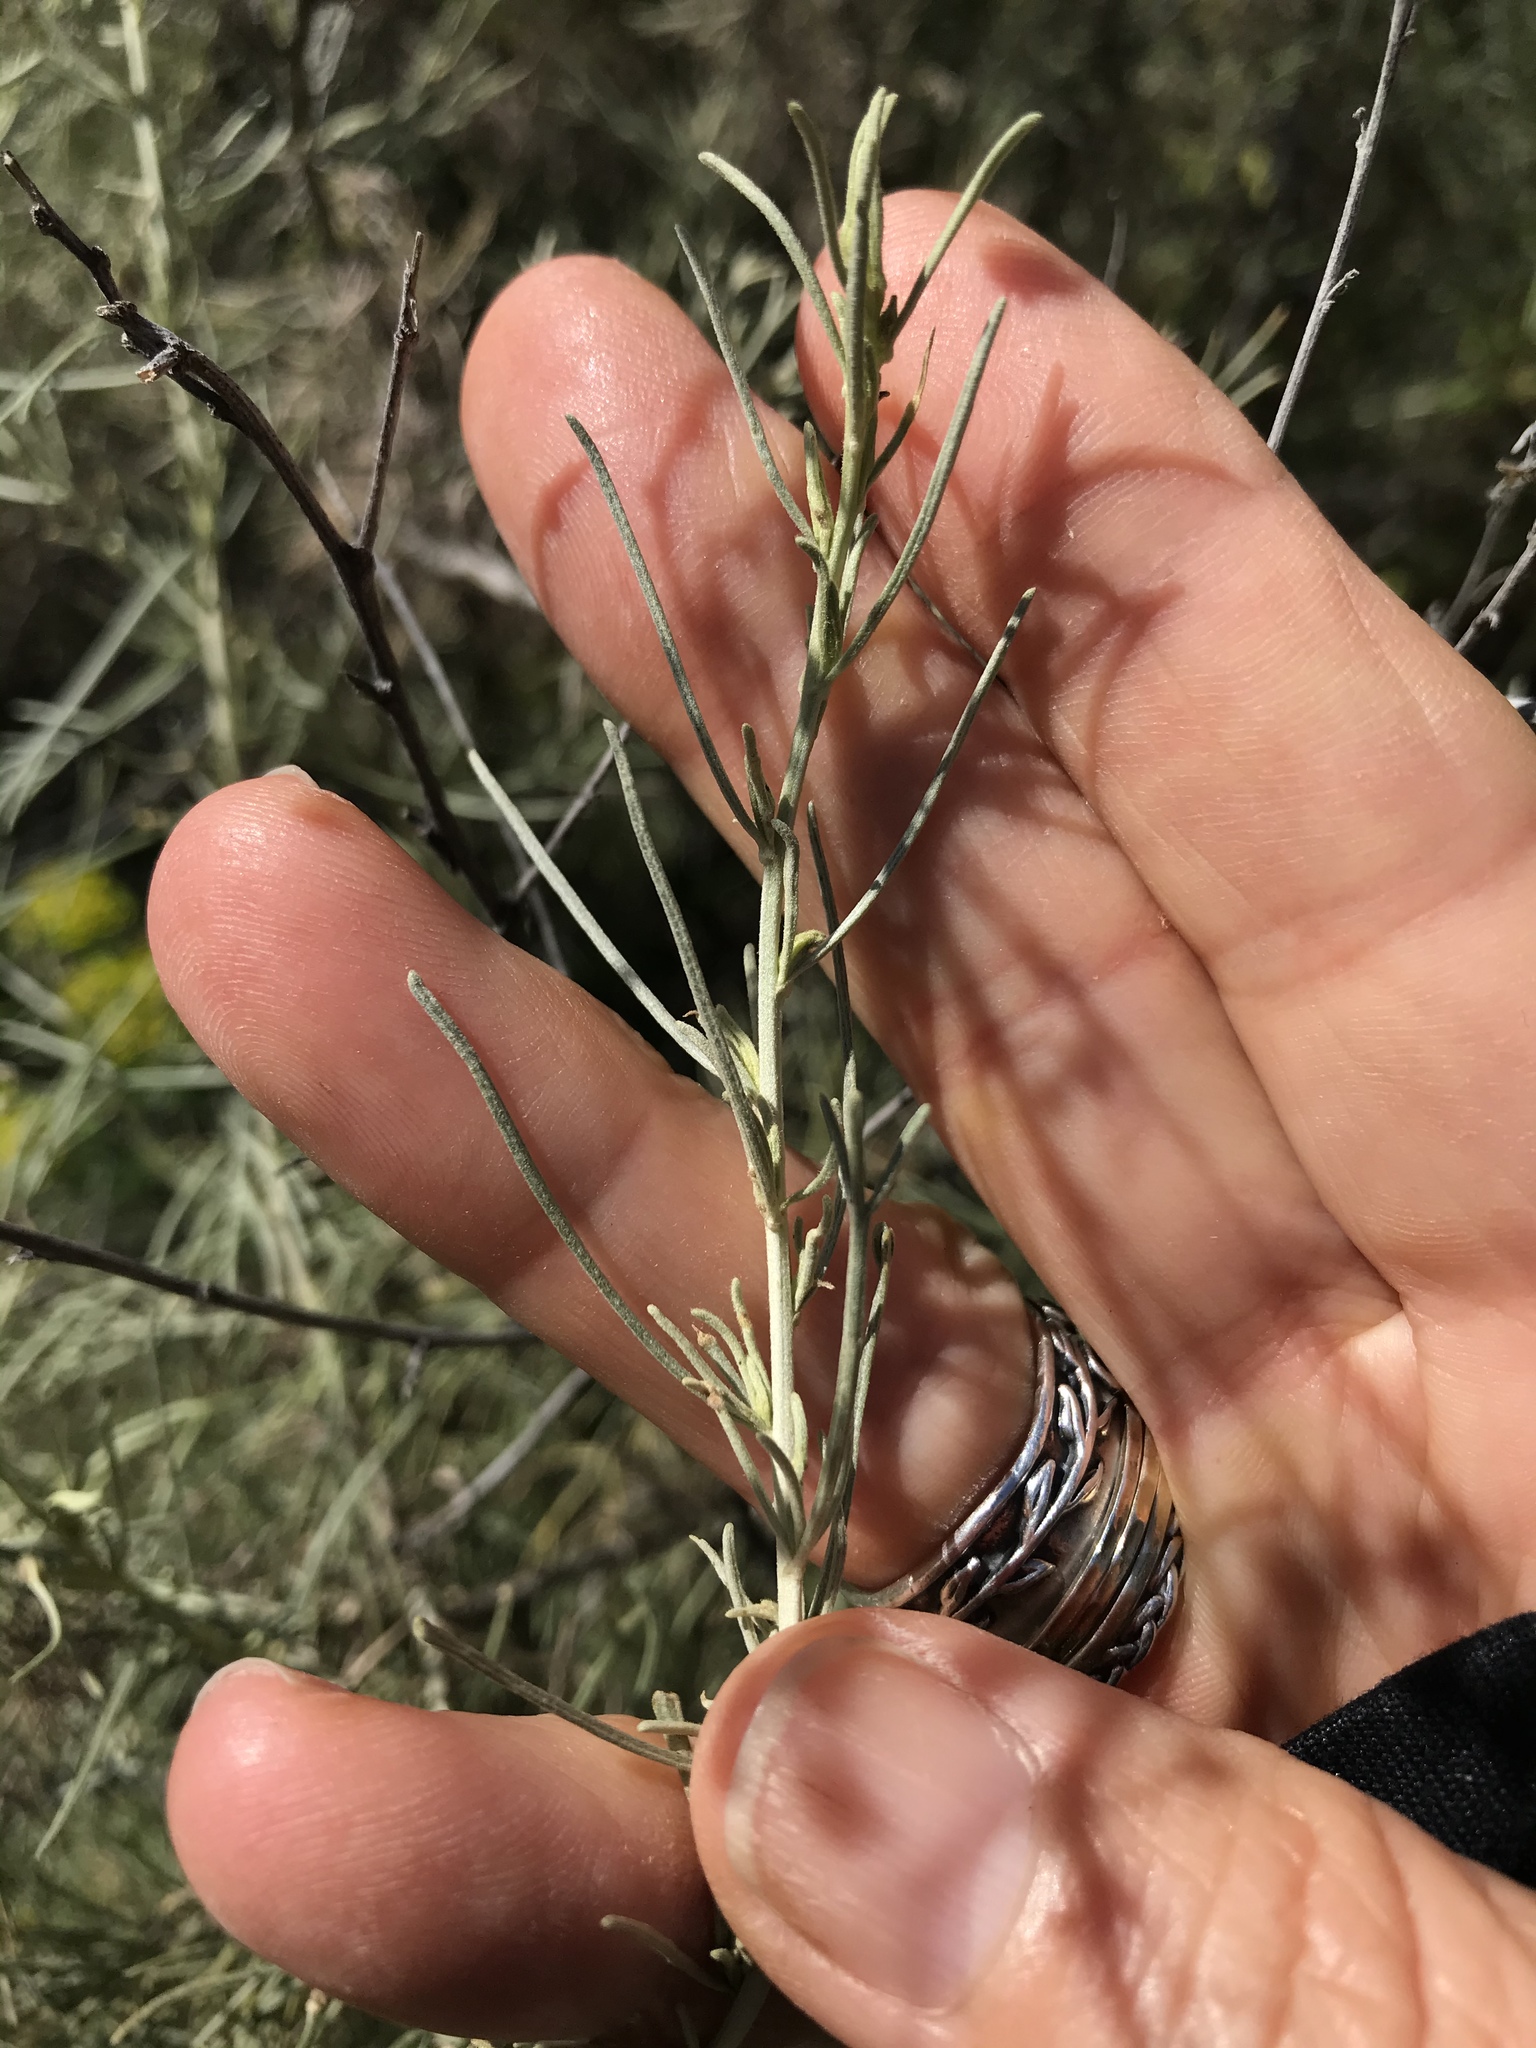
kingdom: Plantae
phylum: Tracheophyta
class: Magnoliopsida
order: Asterales
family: Asteraceae
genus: Artemisia
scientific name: Artemisia californica
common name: California sagebrush
